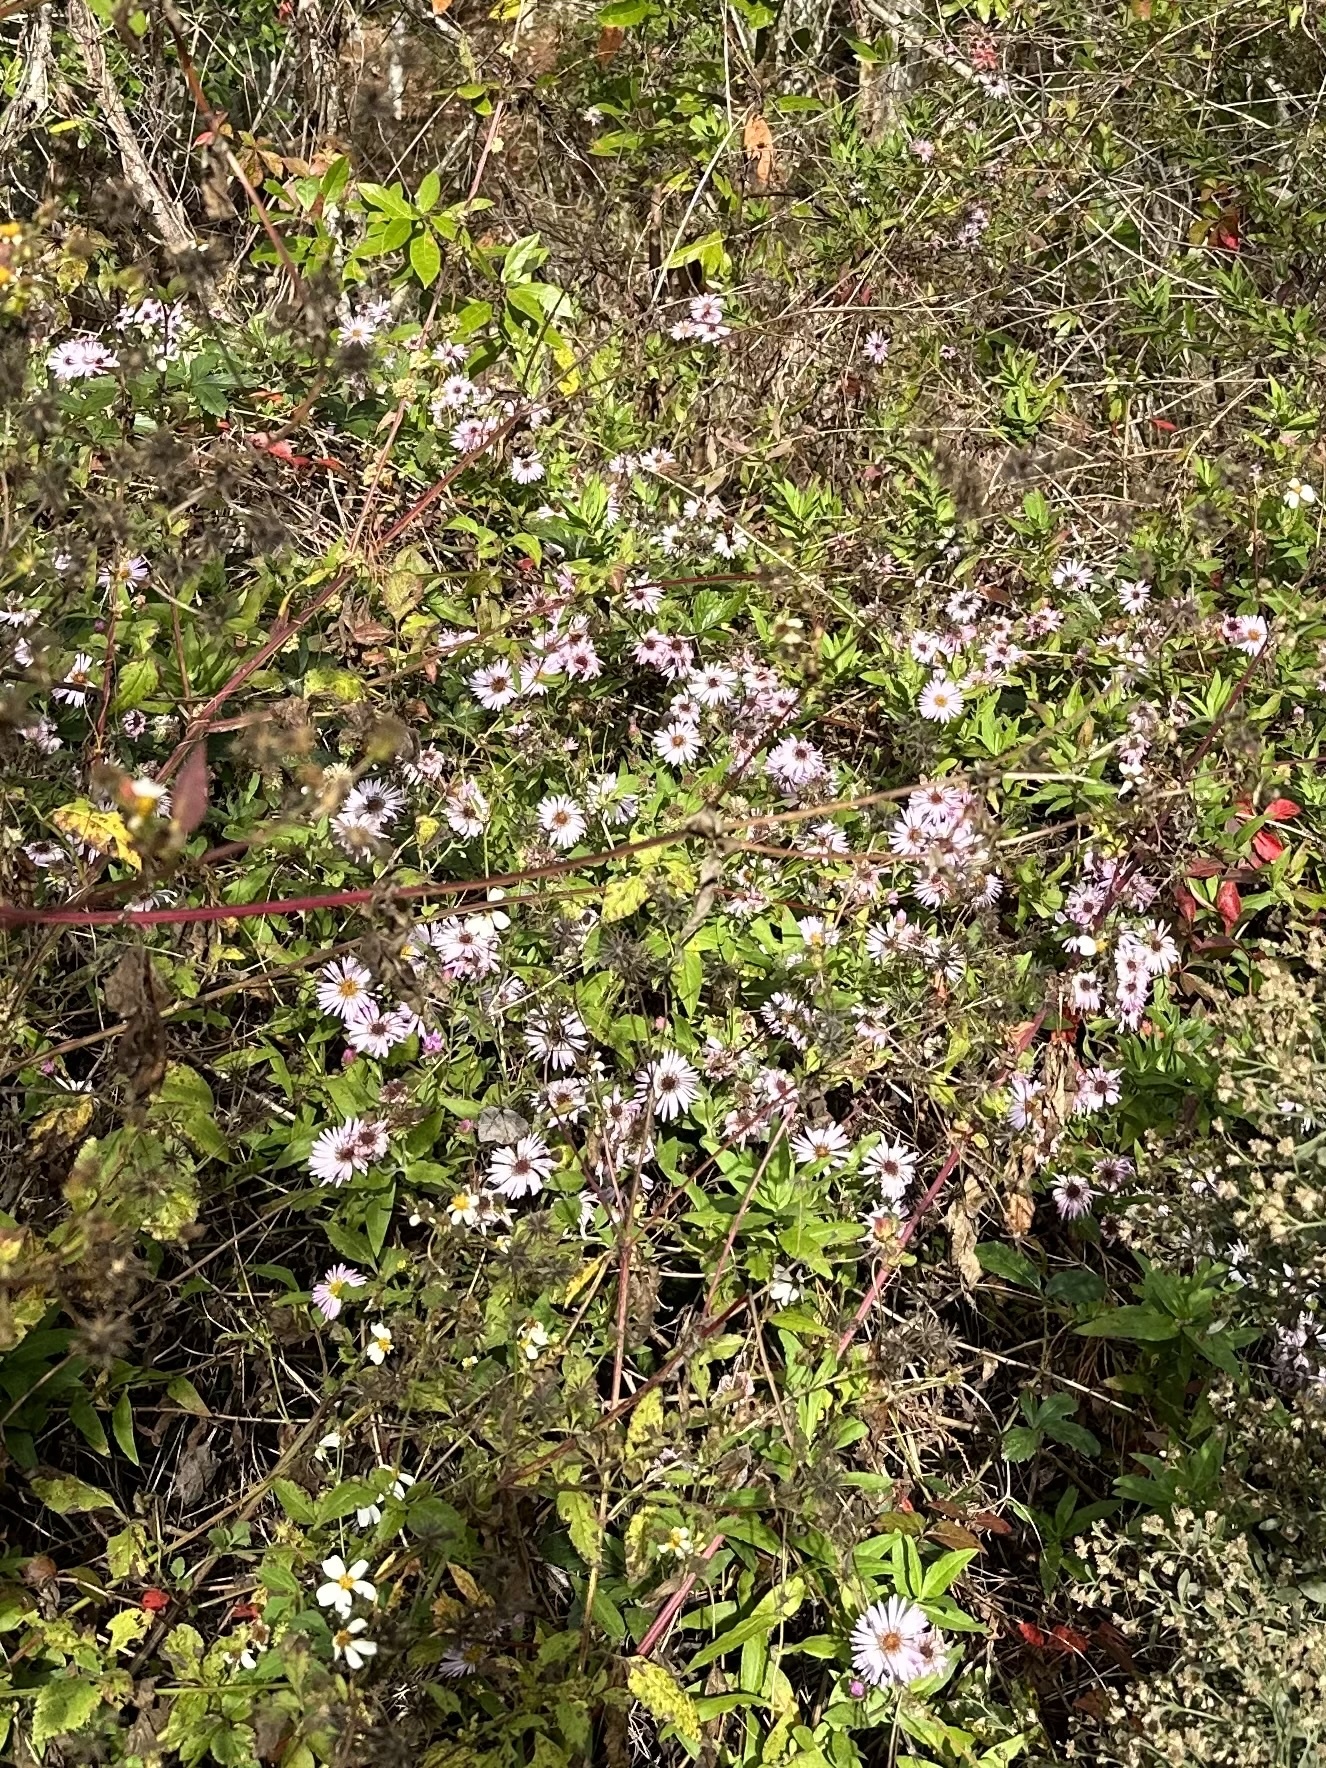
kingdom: Plantae
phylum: Tracheophyta
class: Magnoliopsida
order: Asterales
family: Asteraceae
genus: Ampelaster
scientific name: Ampelaster carolinianus
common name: Climbing aster
